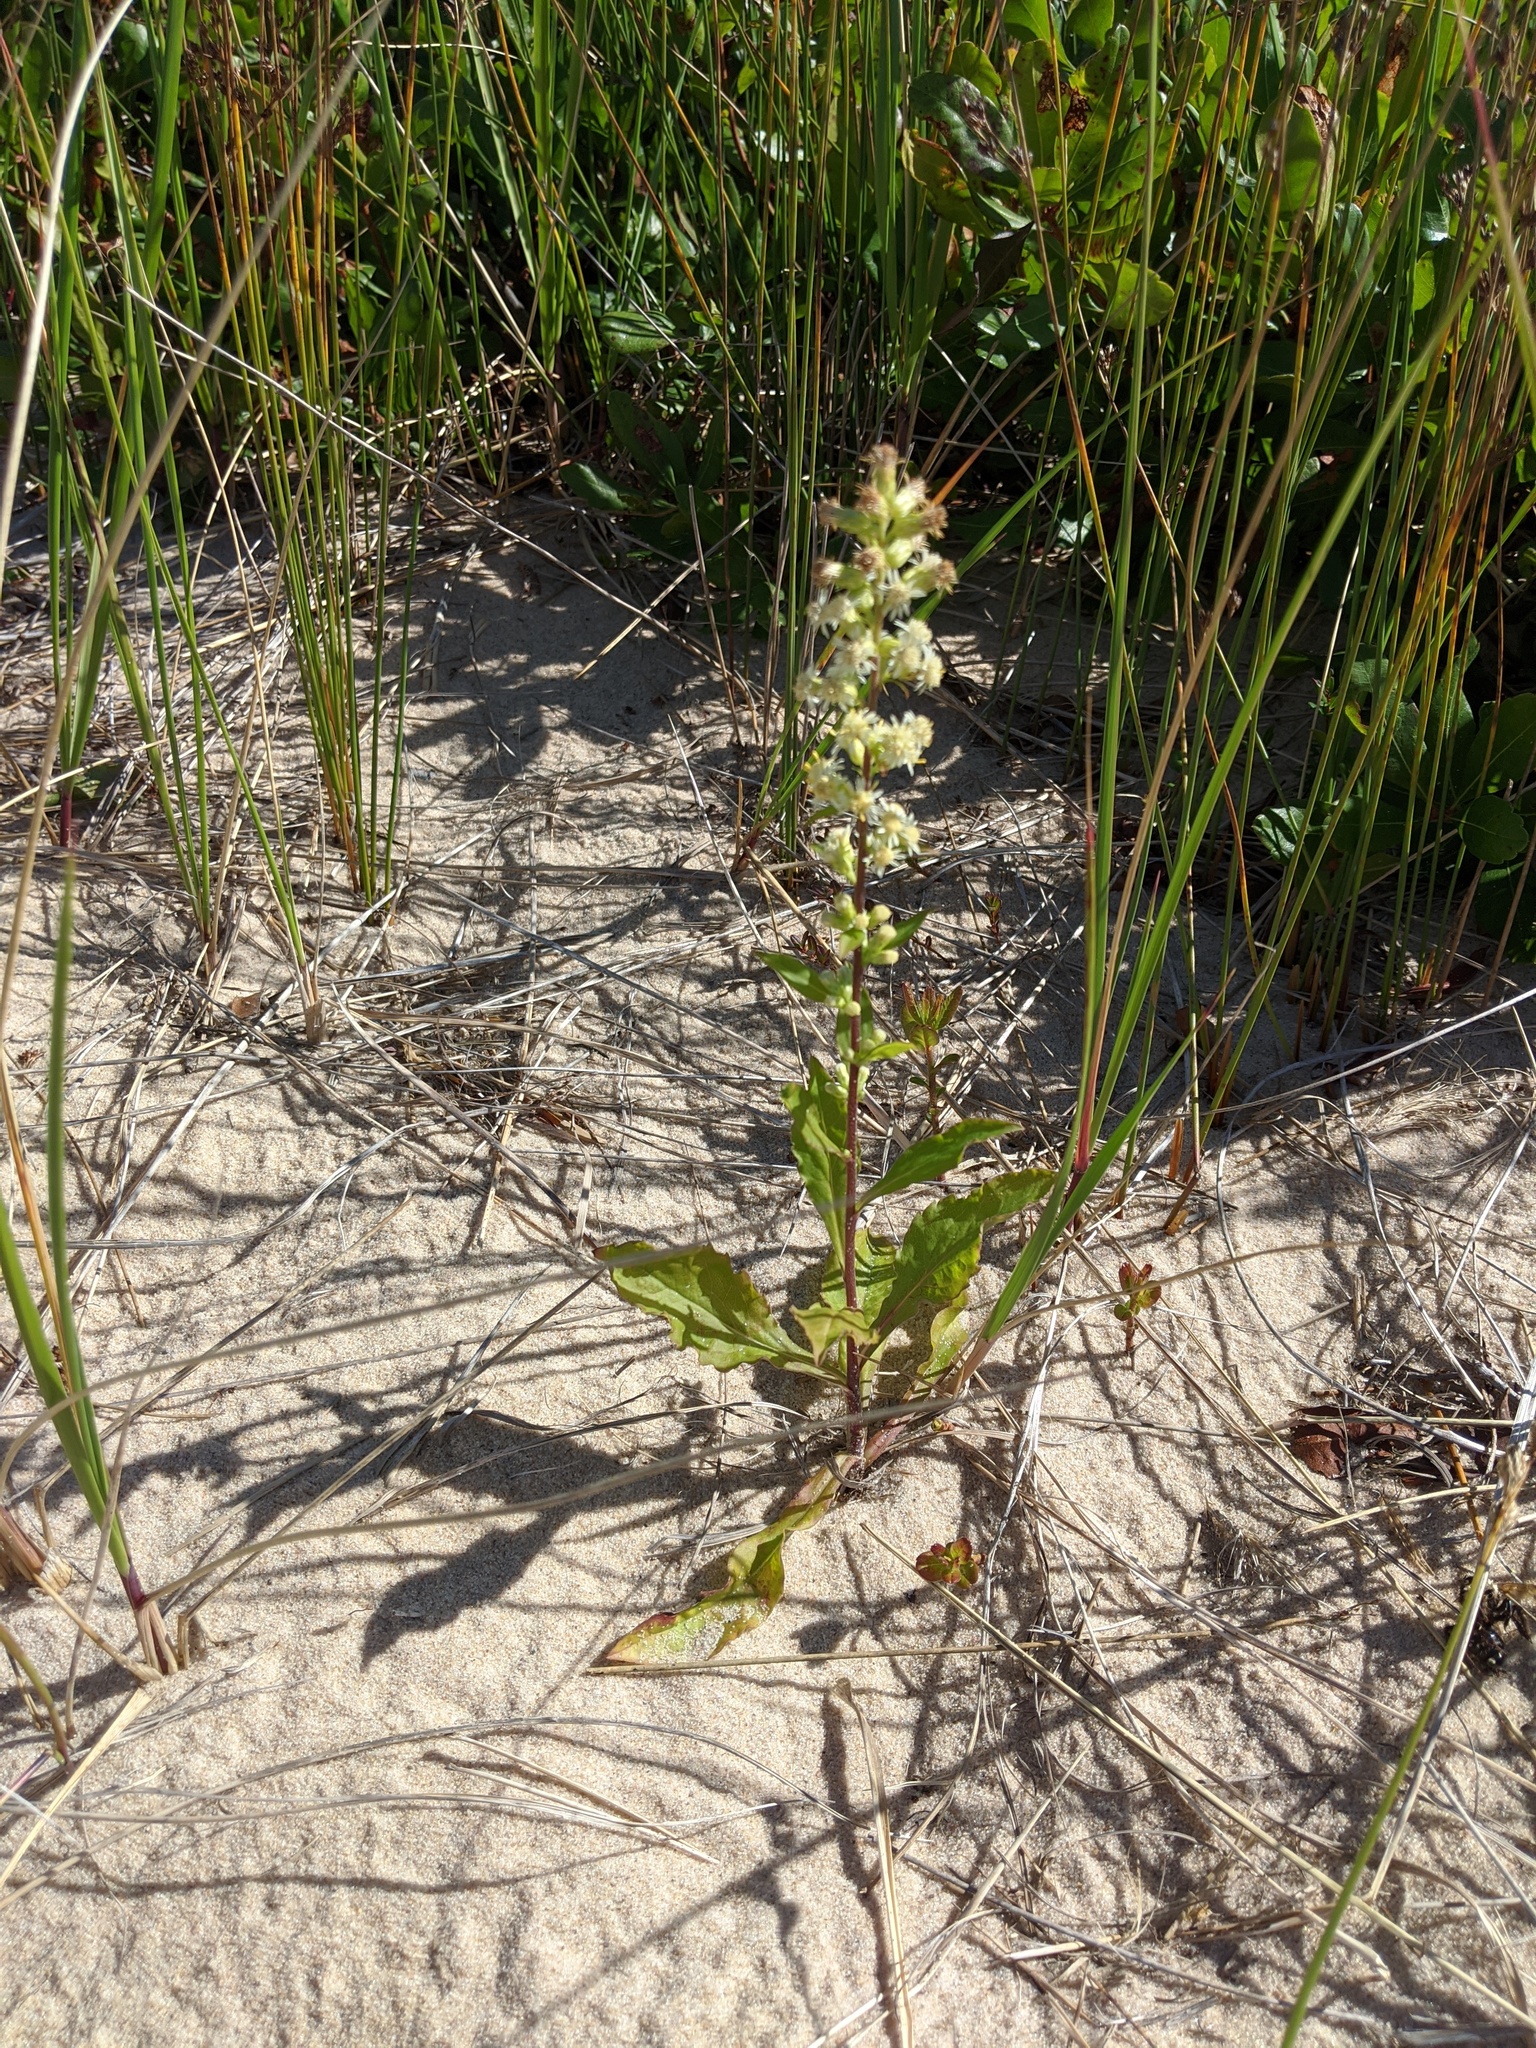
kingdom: Plantae
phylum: Tracheophyta
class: Magnoliopsida
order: Asterales
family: Asteraceae
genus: Solidago
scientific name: Solidago bicolor
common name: Silverrod
